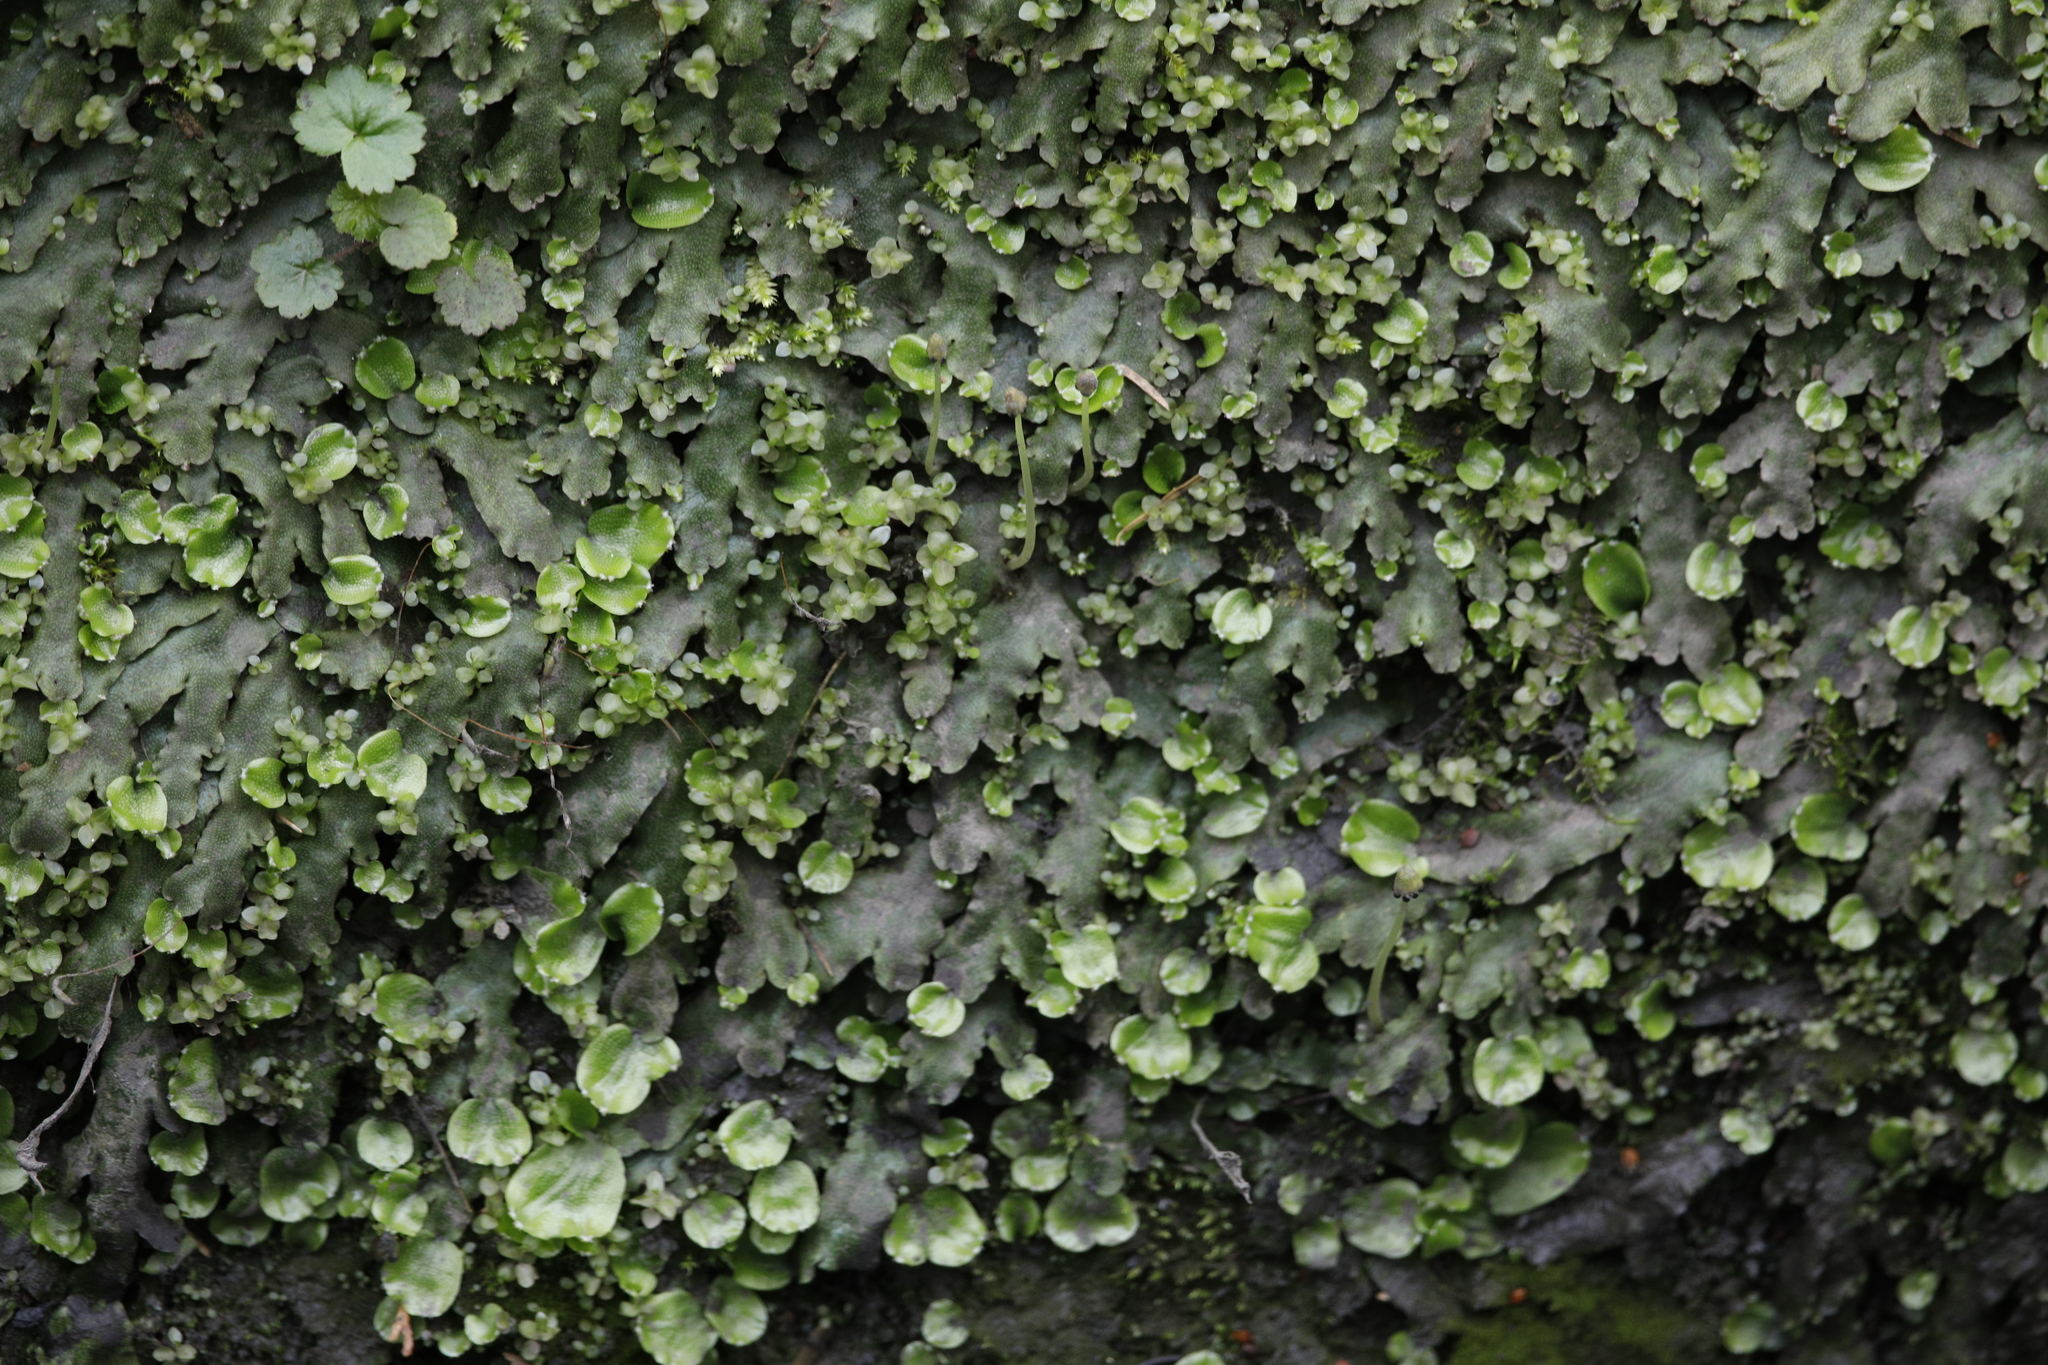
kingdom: Plantae
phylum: Marchantiophyta
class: Marchantiopsida
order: Marchantiales
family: Conocephalaceae
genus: Conocephalum
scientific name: Conocephalum conicum
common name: Great scented liverwort
